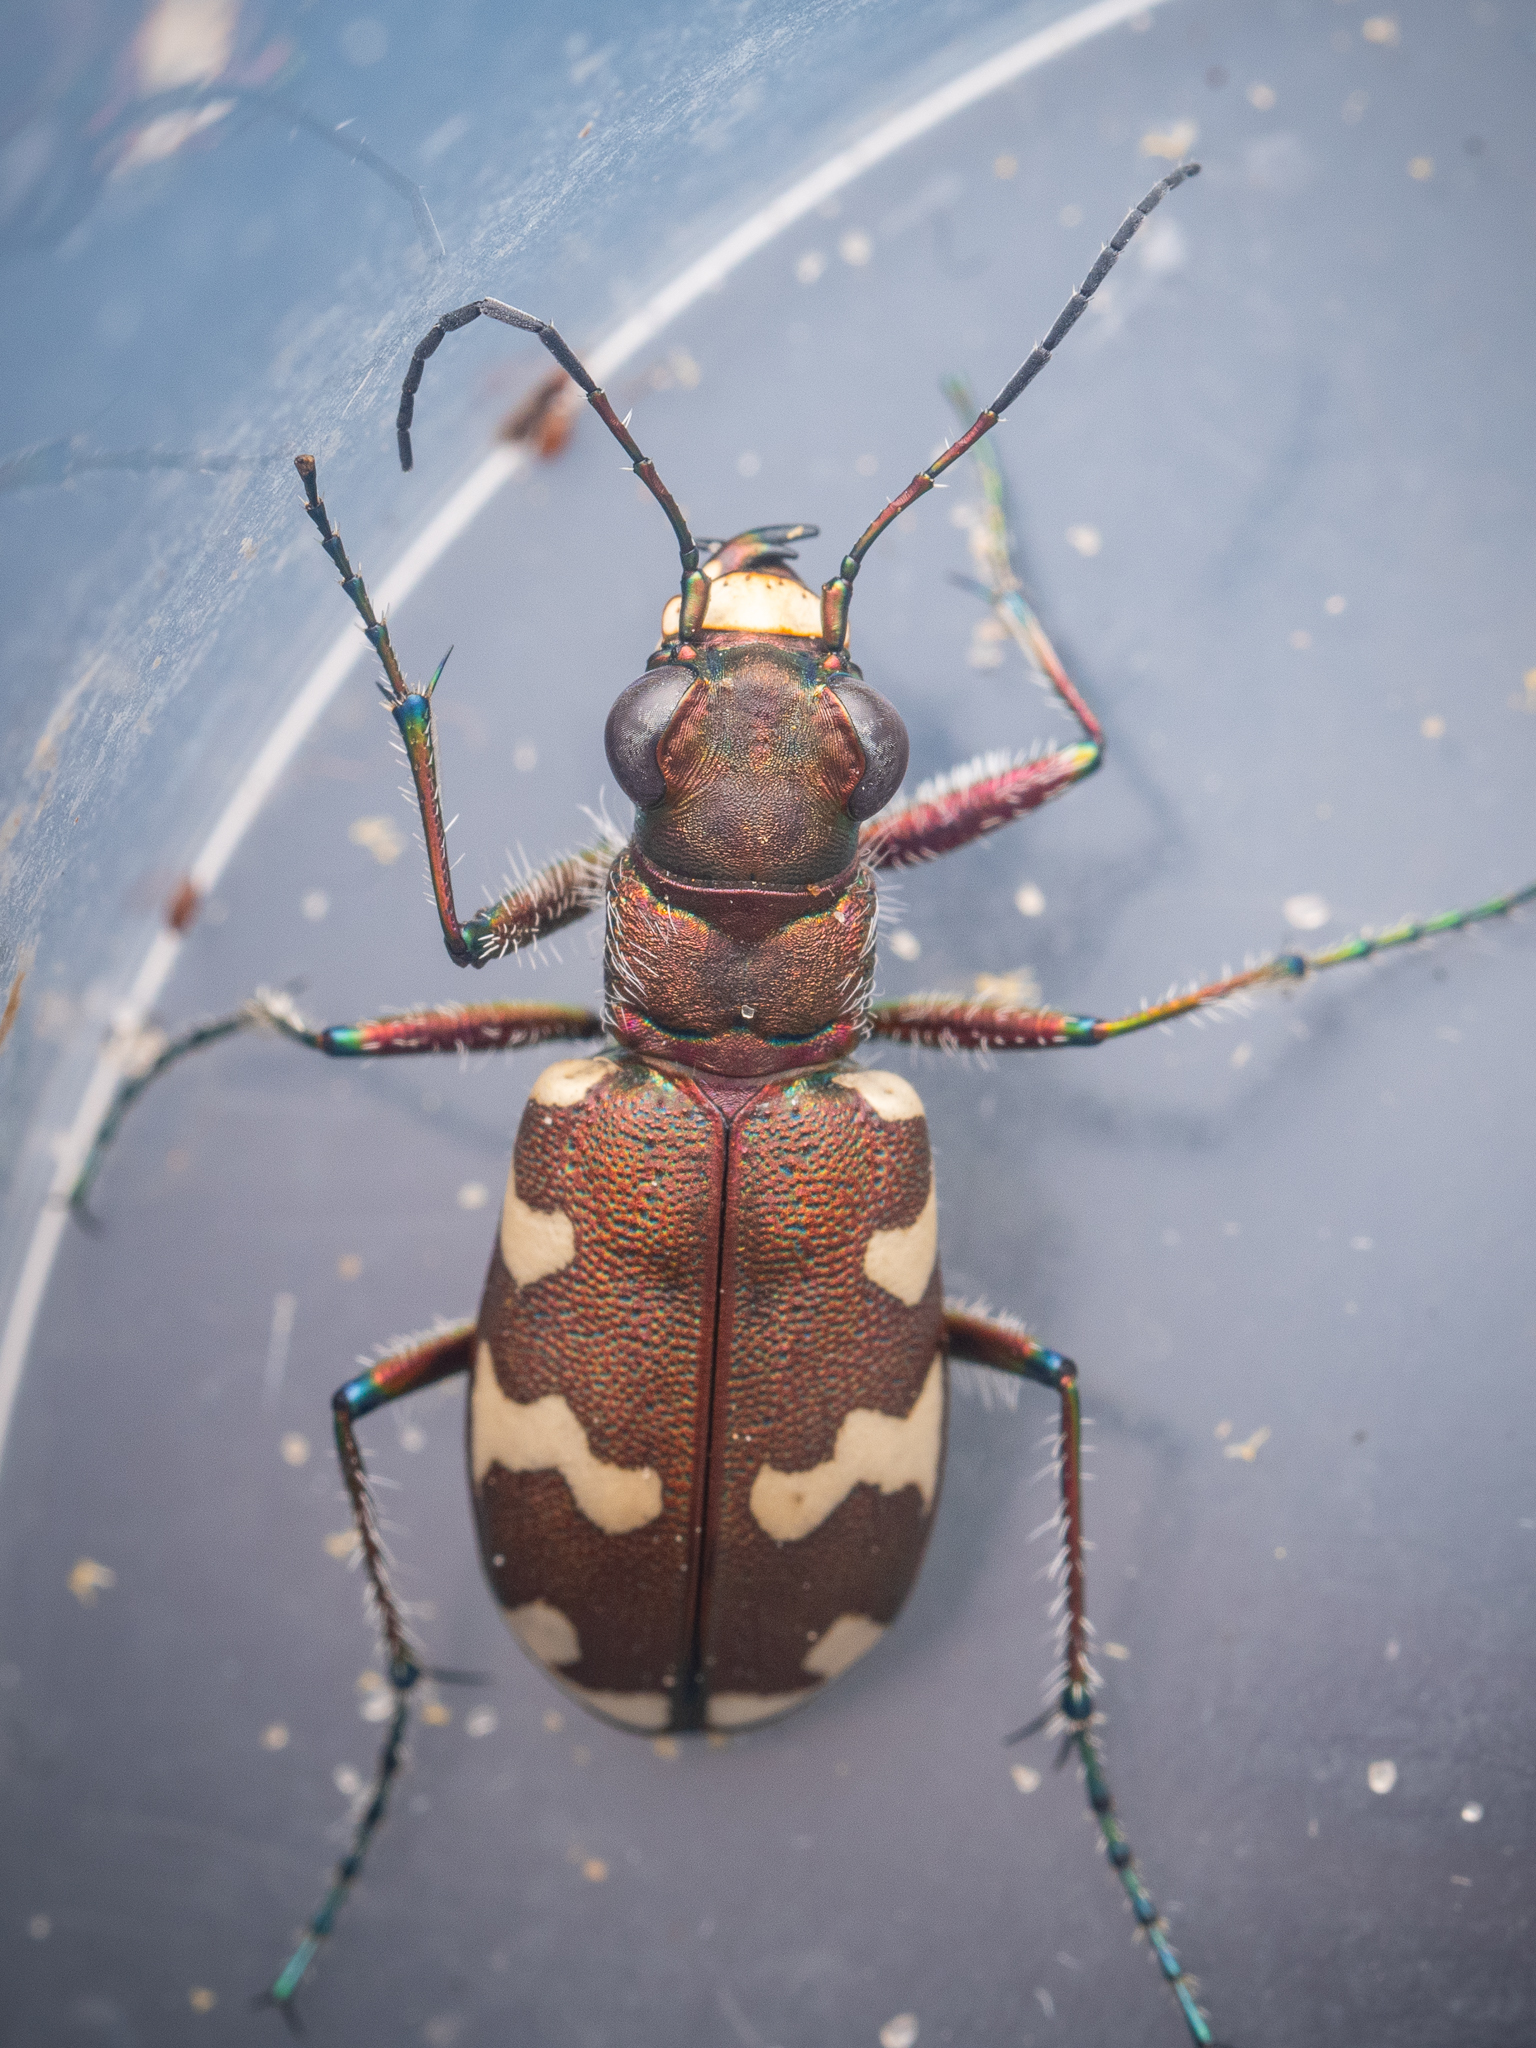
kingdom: Animalia
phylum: Arthropoda
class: Insecta
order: Coleoptera
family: Carabidae
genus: Cicindela
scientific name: Cicindela hybrida
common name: Northern dune tiger beetle
